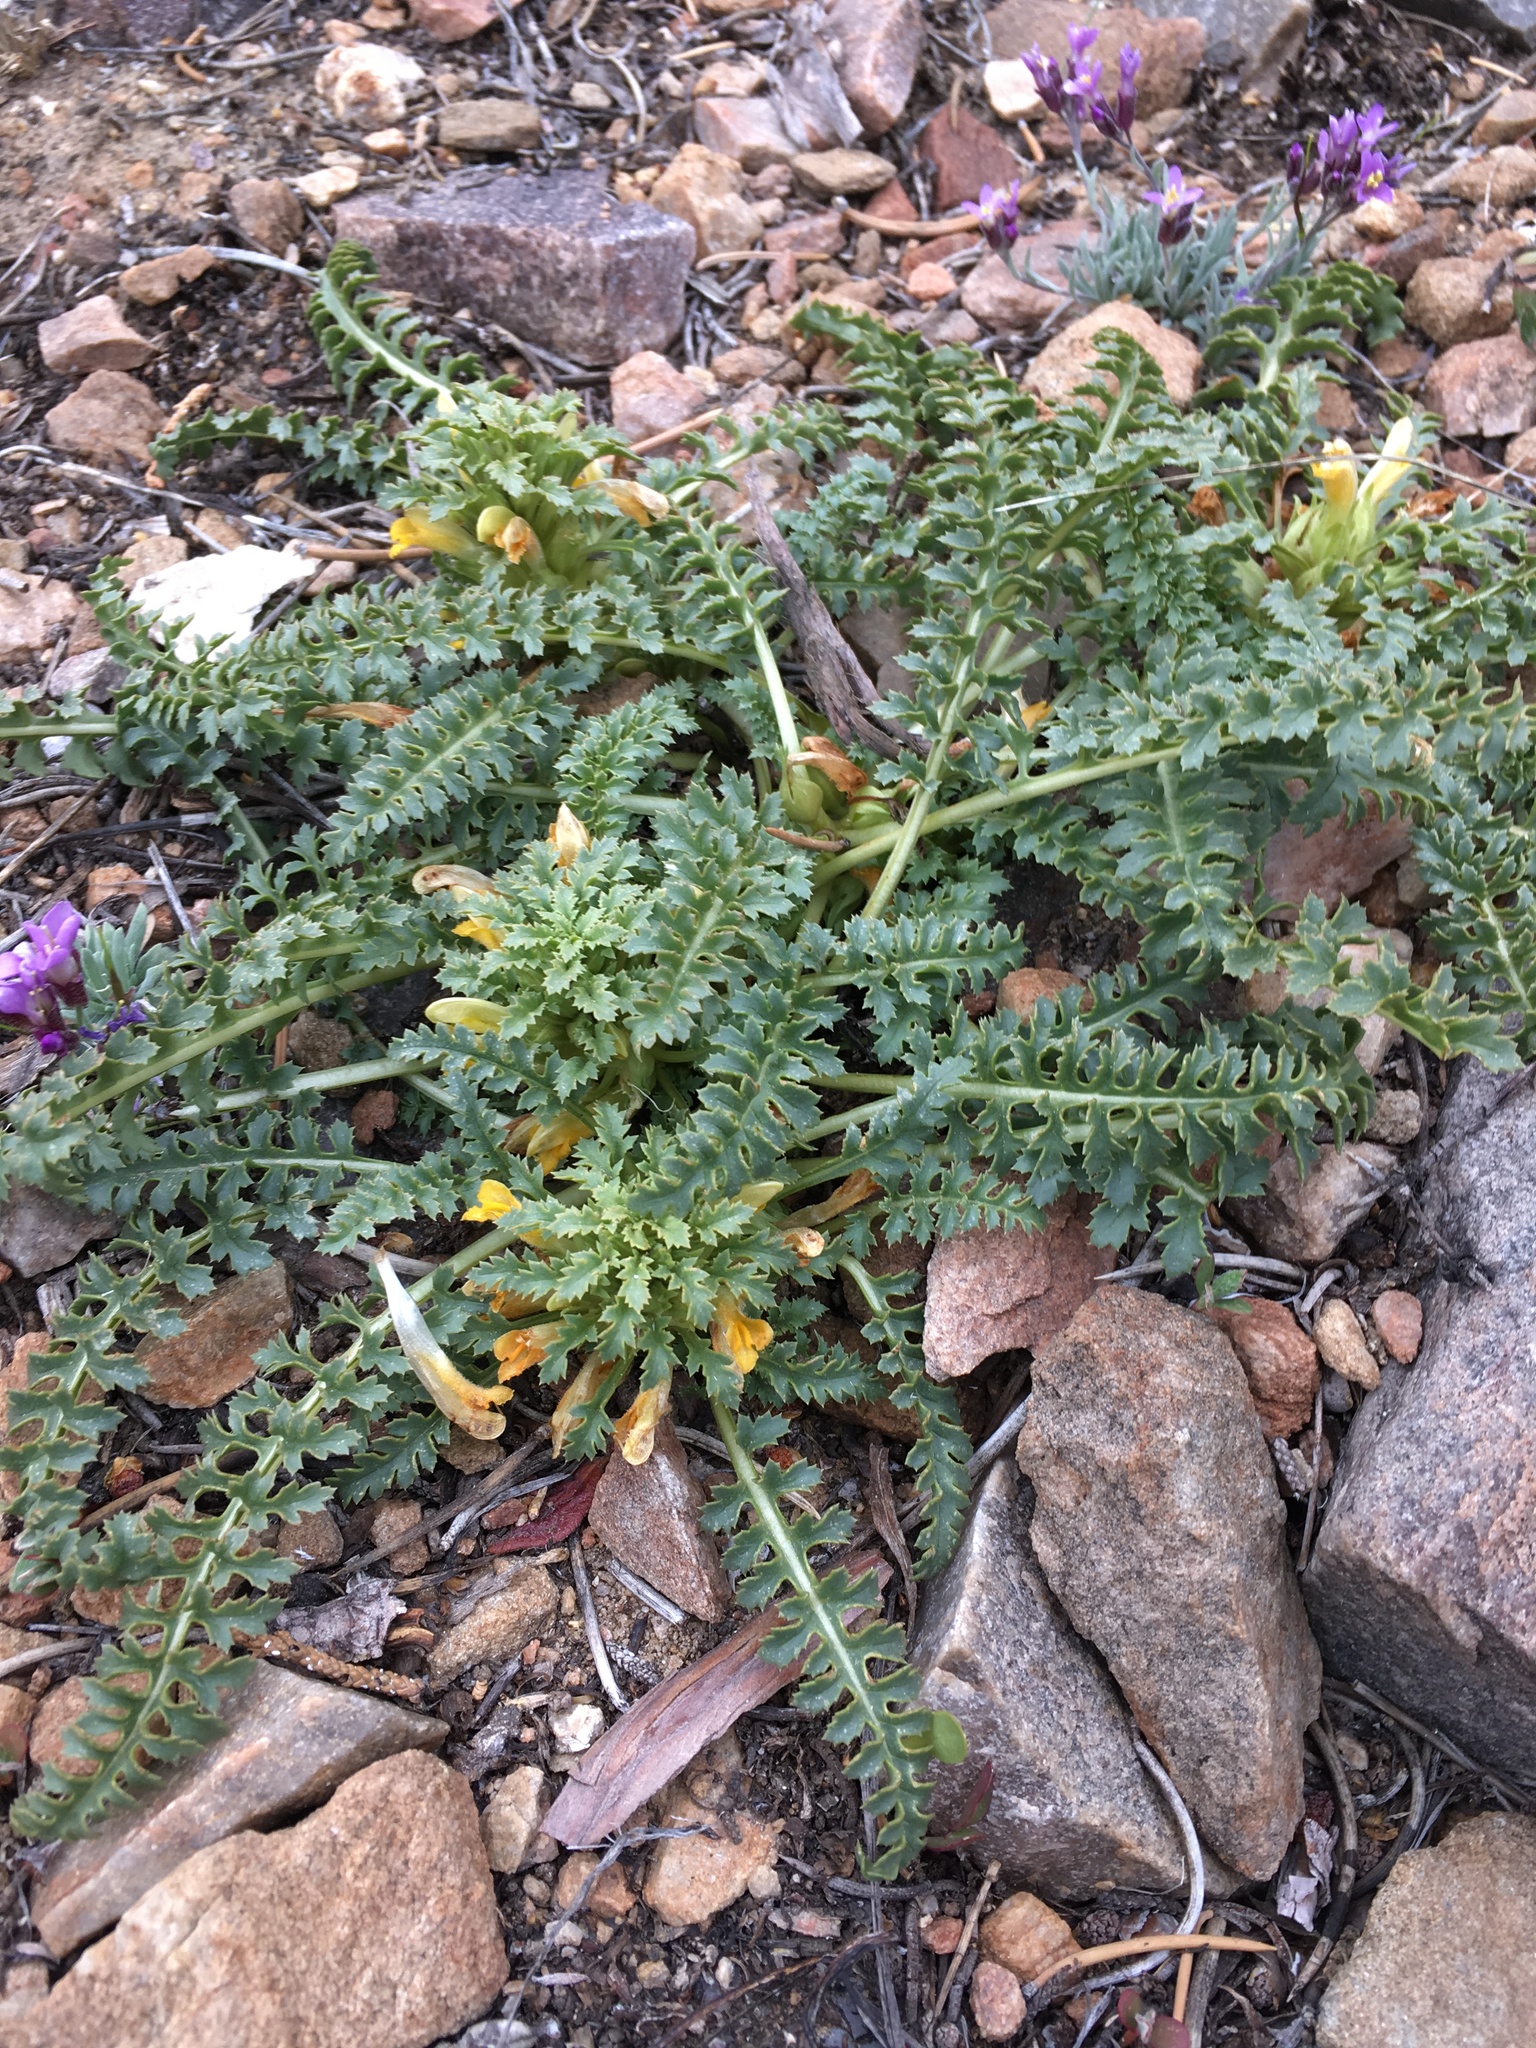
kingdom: Plantae
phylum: Tracheophyta
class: Magnoliopsida
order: Lamiales
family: Orobanchaceae
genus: Pedicularis
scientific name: Pedicularis semibarbata
